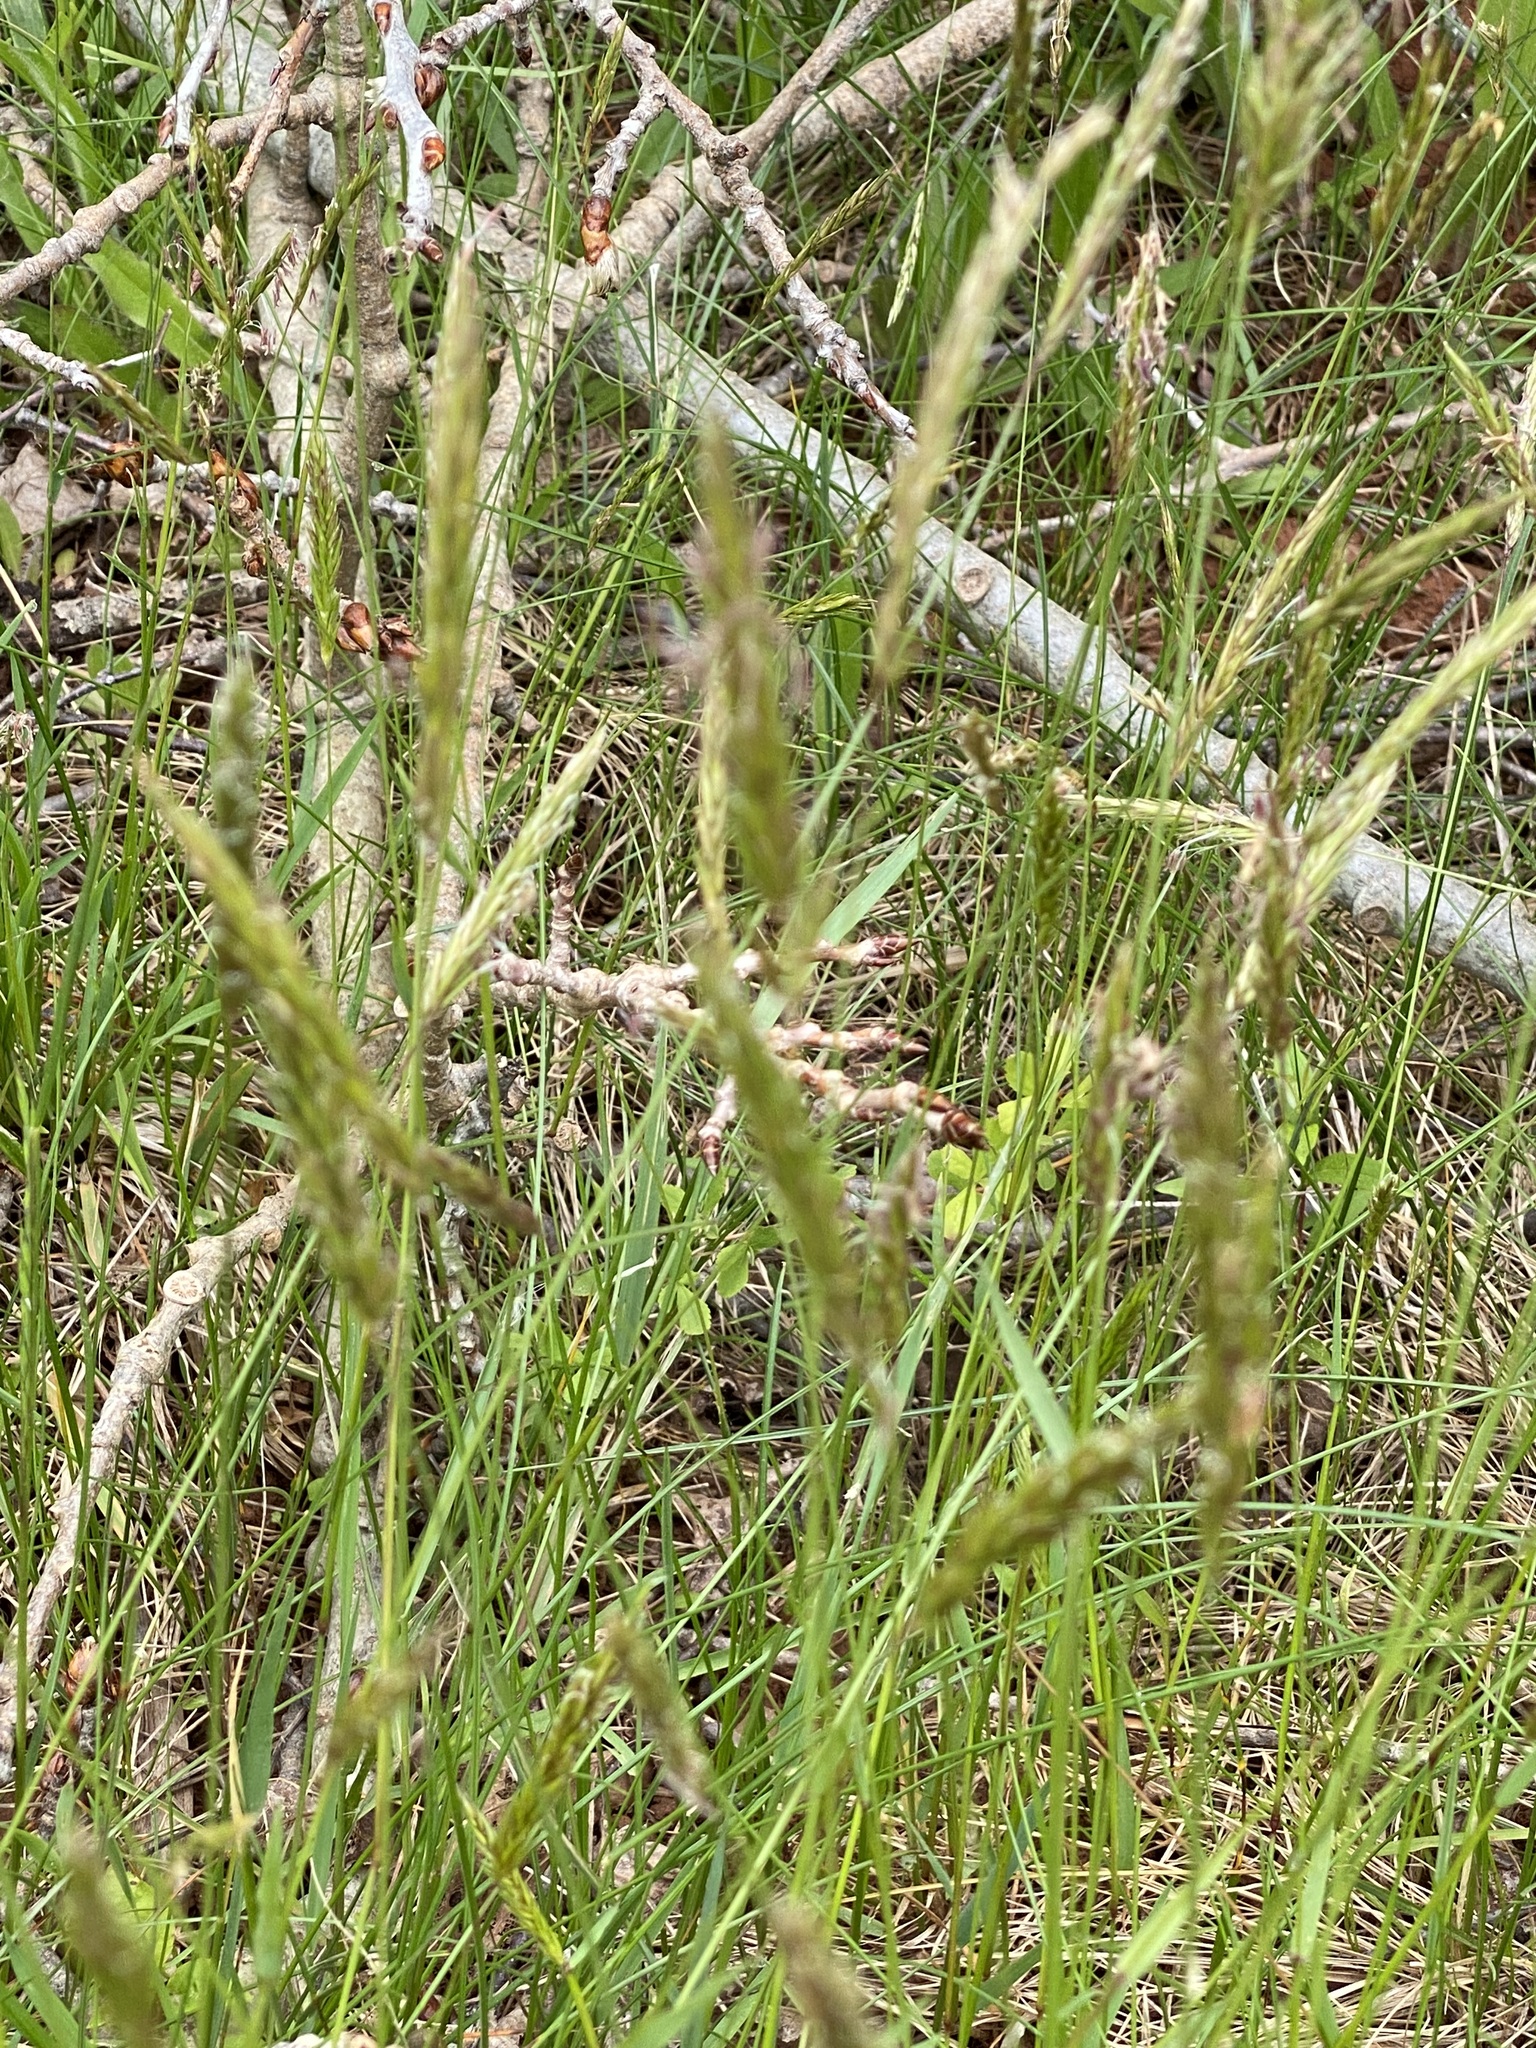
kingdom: Plantae
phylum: Tracheophyta
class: Liliopsida
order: Poales
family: Poaceae
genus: Anthoxanthum
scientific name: Anthoxanthum odoratum
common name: Sweet vernalgrass
